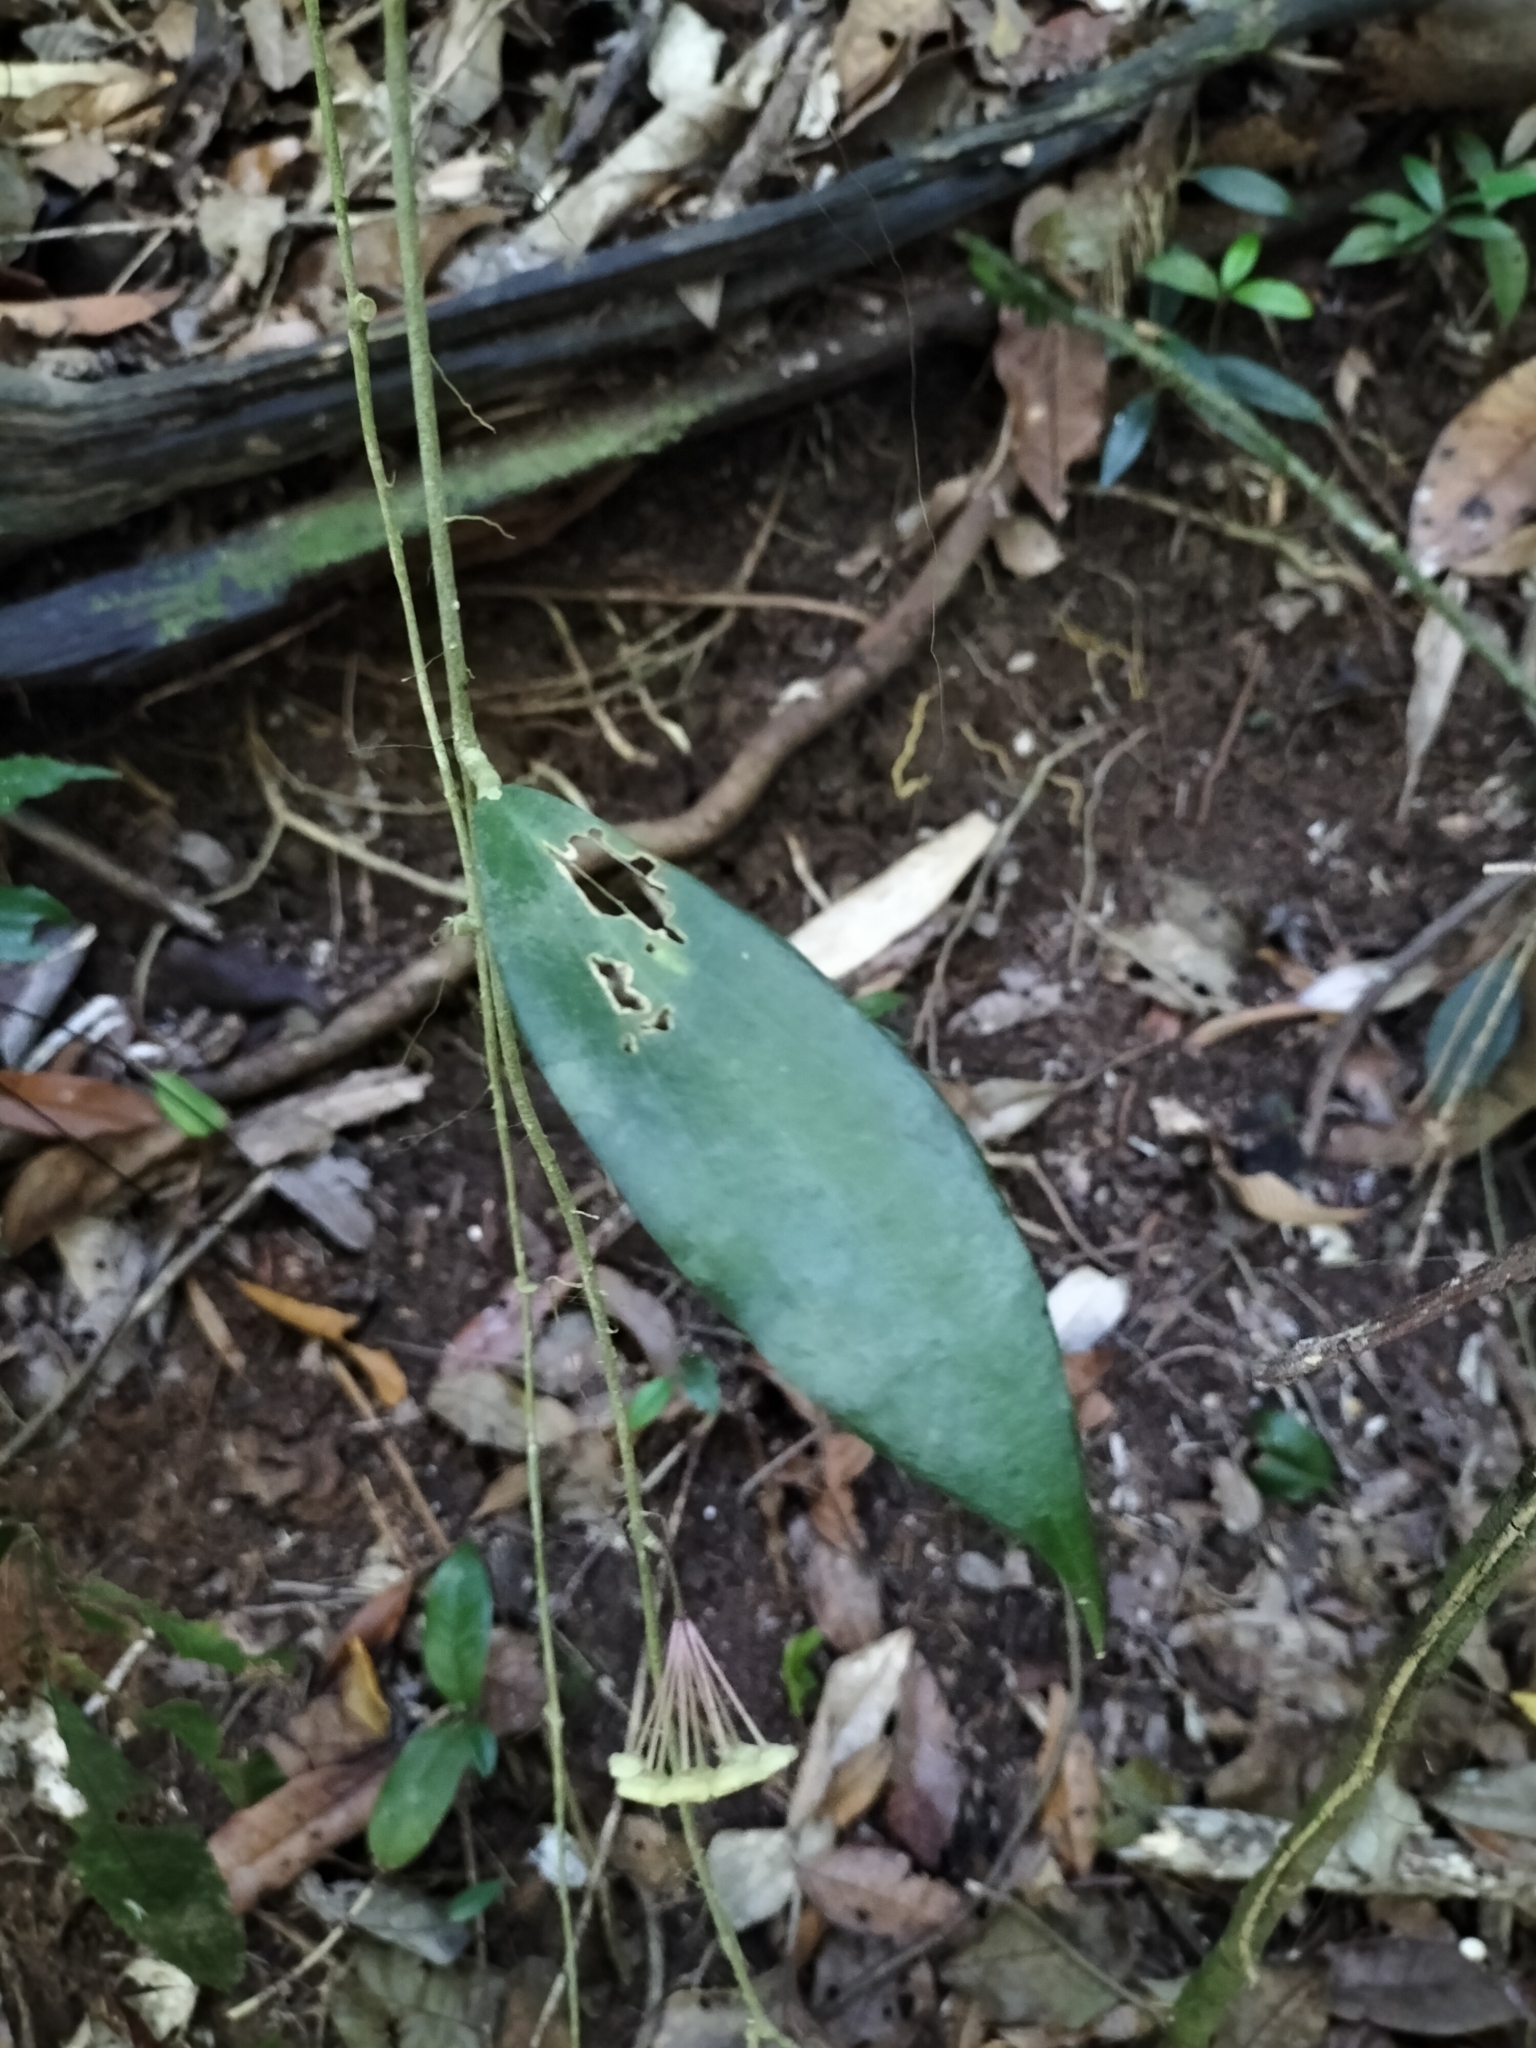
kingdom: Plantae
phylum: Tracheophyta
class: Magnoliopsida
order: Gentianales
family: Apocynaceae
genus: Hoya
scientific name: Hoya pottsii
